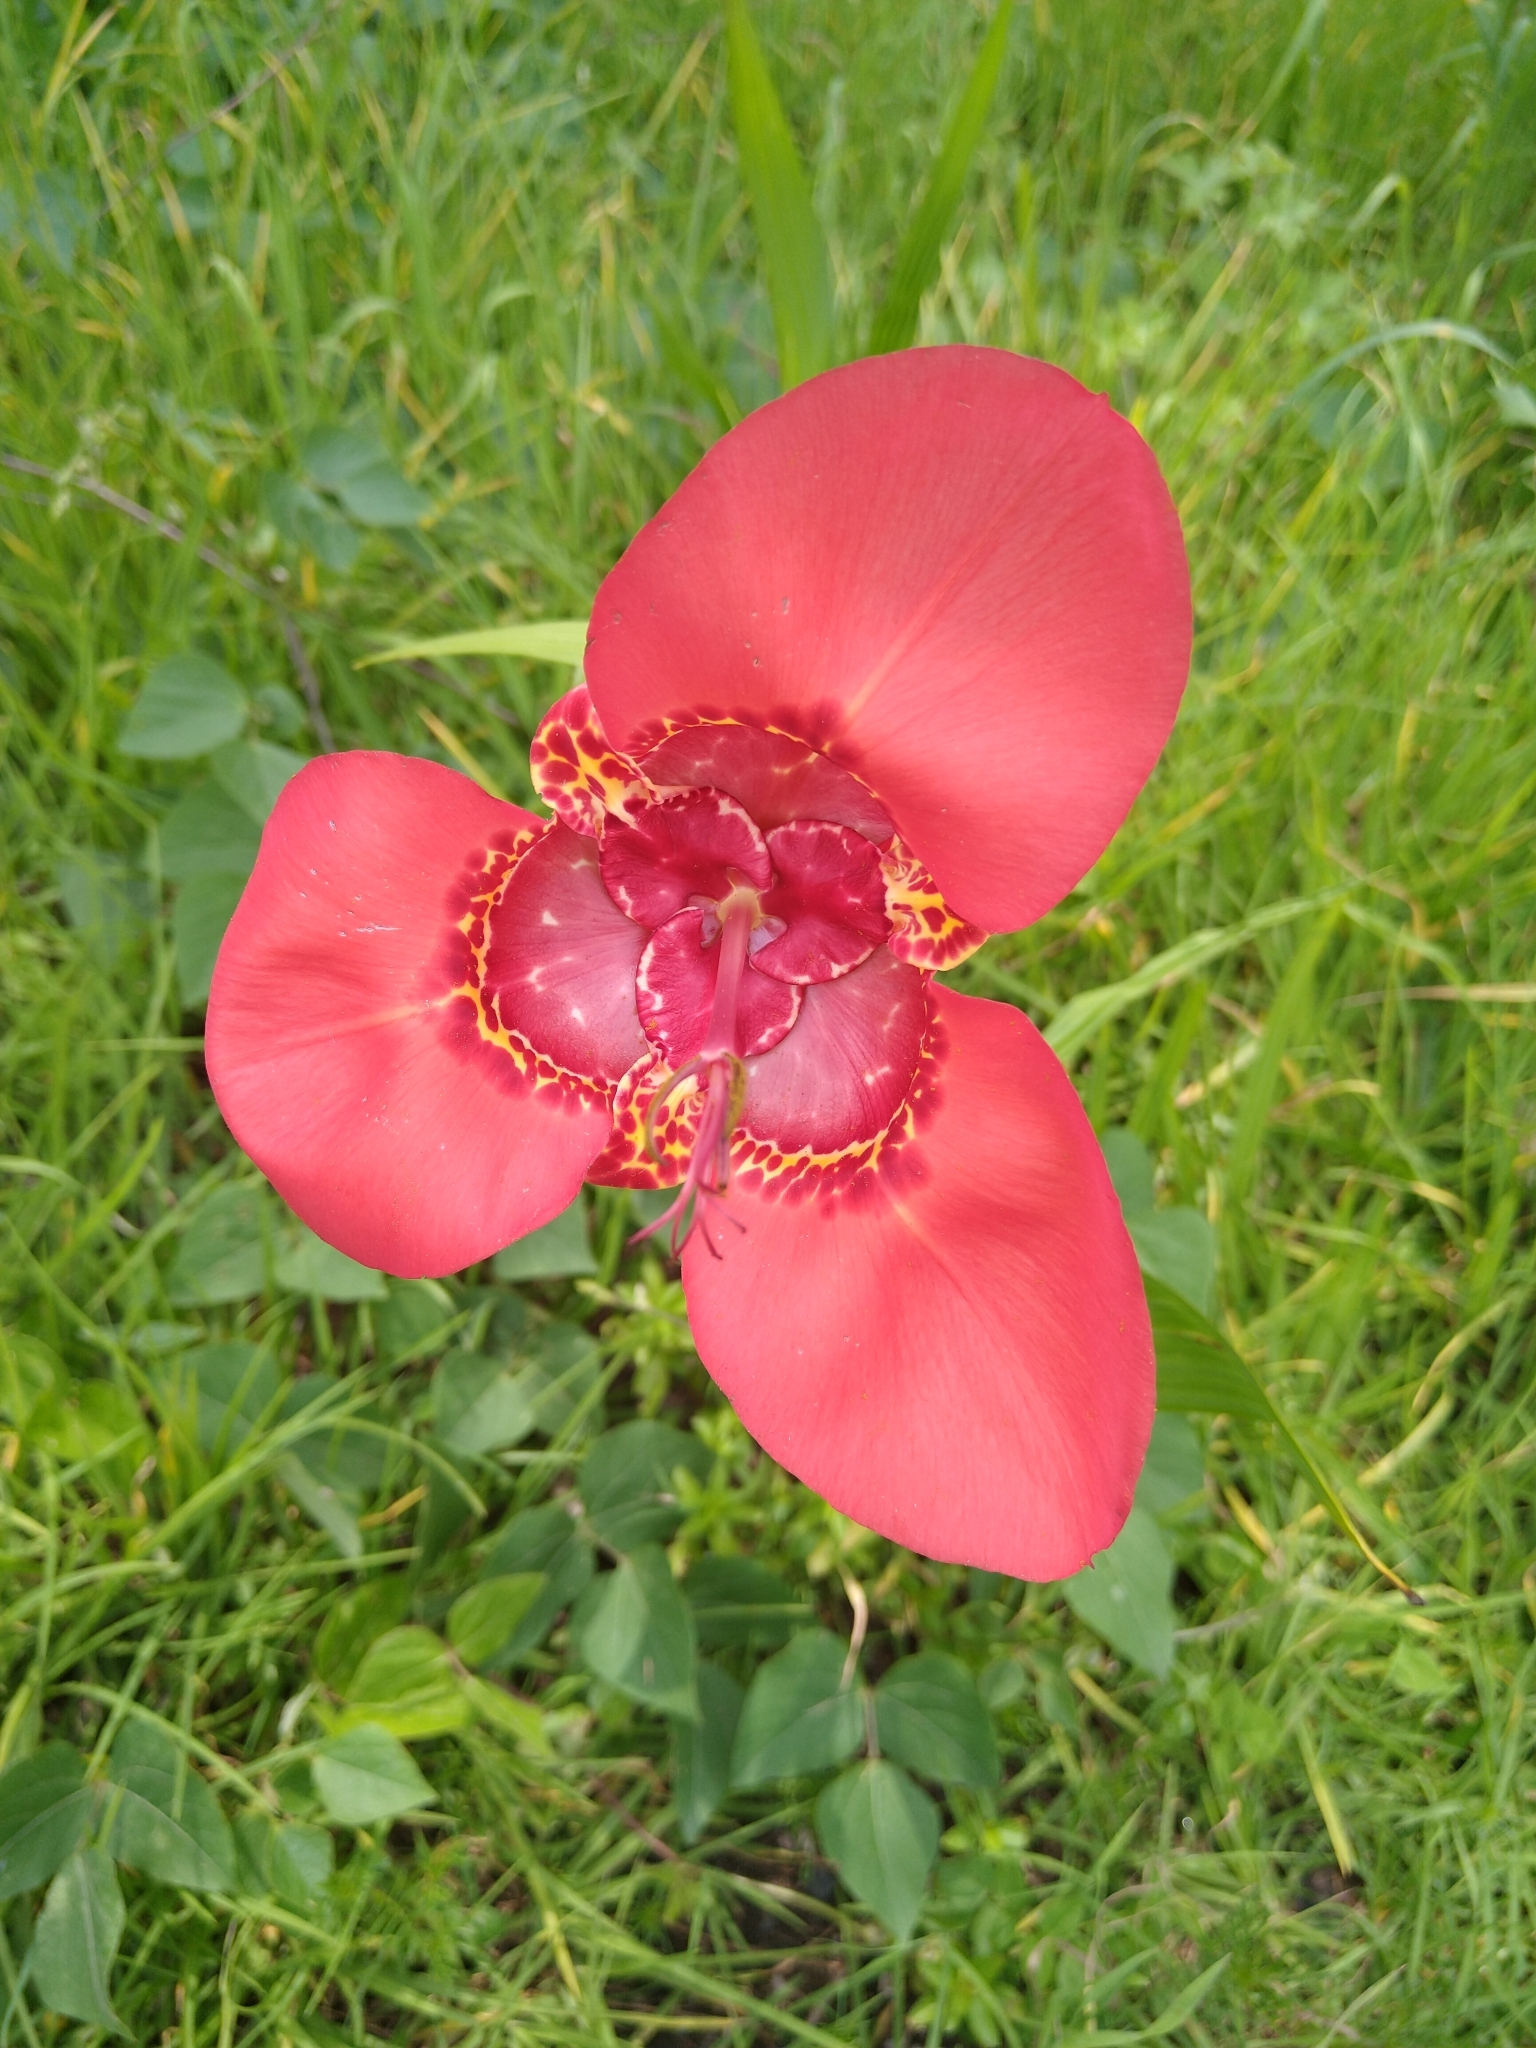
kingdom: Plantae
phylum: Tracheophyta
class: Liliopsida
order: Asparagales
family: Iridaceae
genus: Tigridia
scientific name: Tigridia pavonia
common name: Peacock-flower
